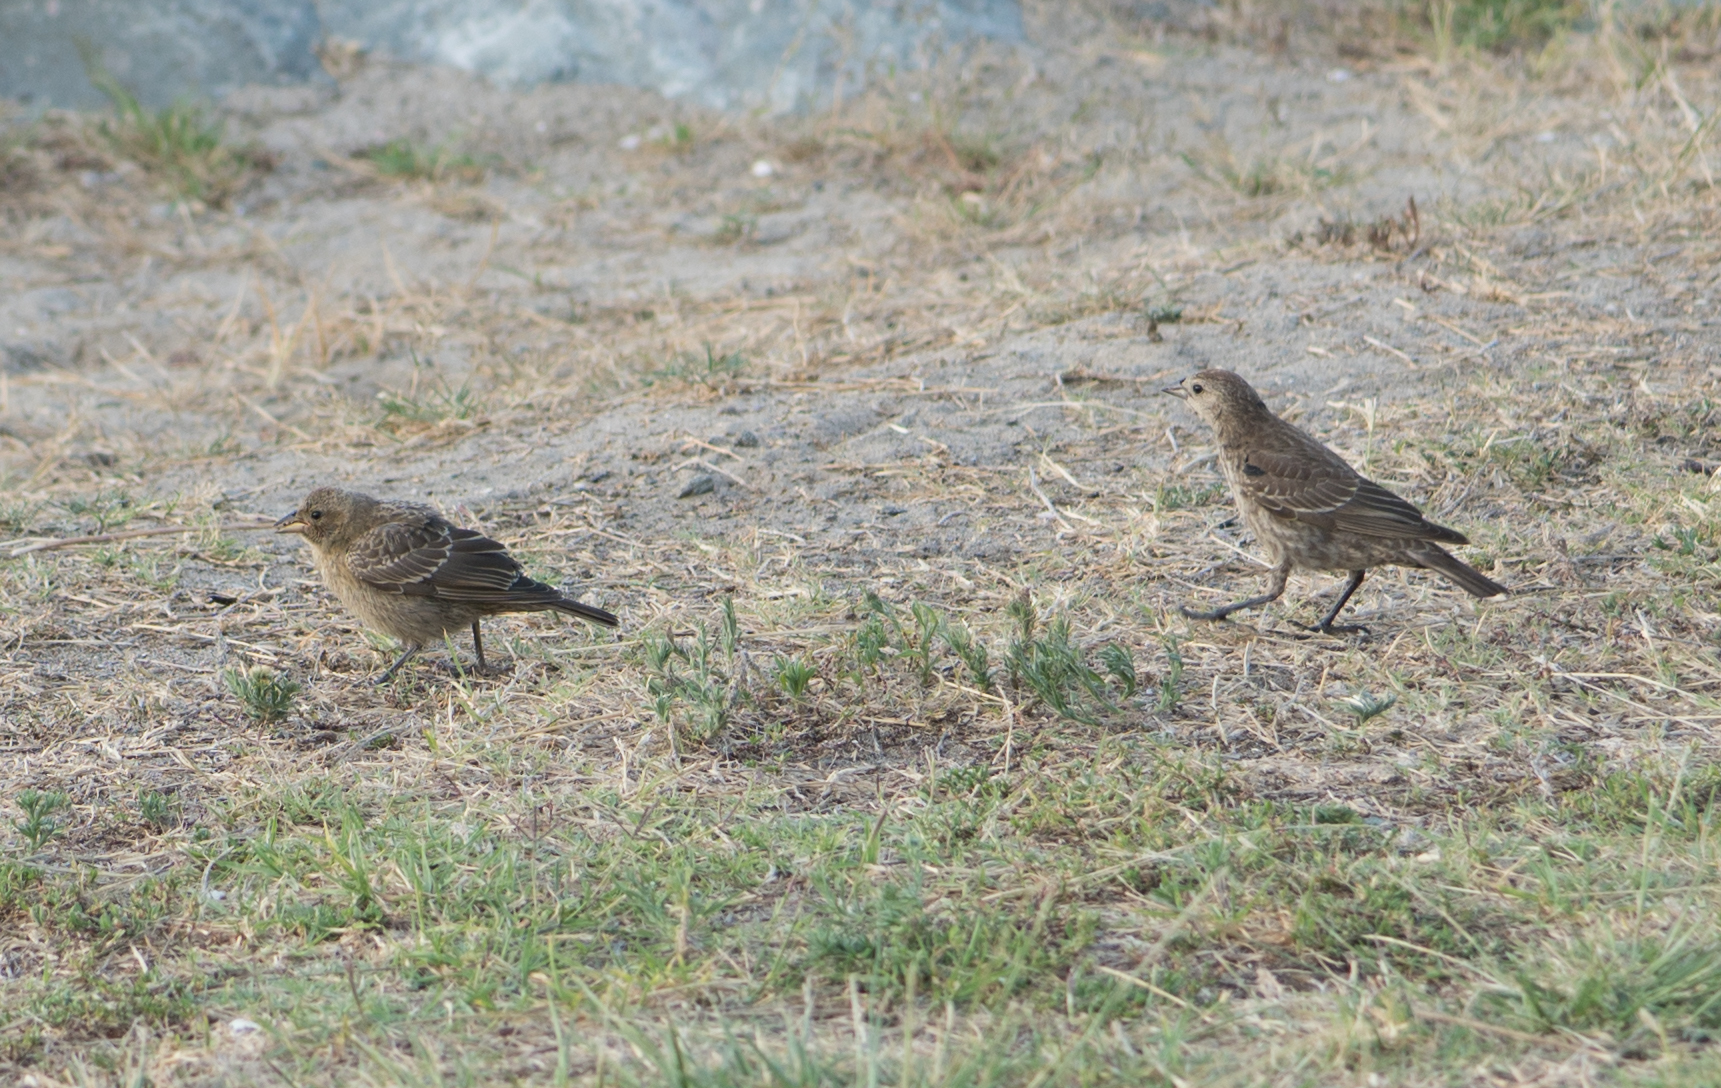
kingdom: Animalia
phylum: Chordata
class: Aves
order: Passeriformes
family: Icteridae
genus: Molothrus
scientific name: Molothrus ater
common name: Brown-headed cowbird
